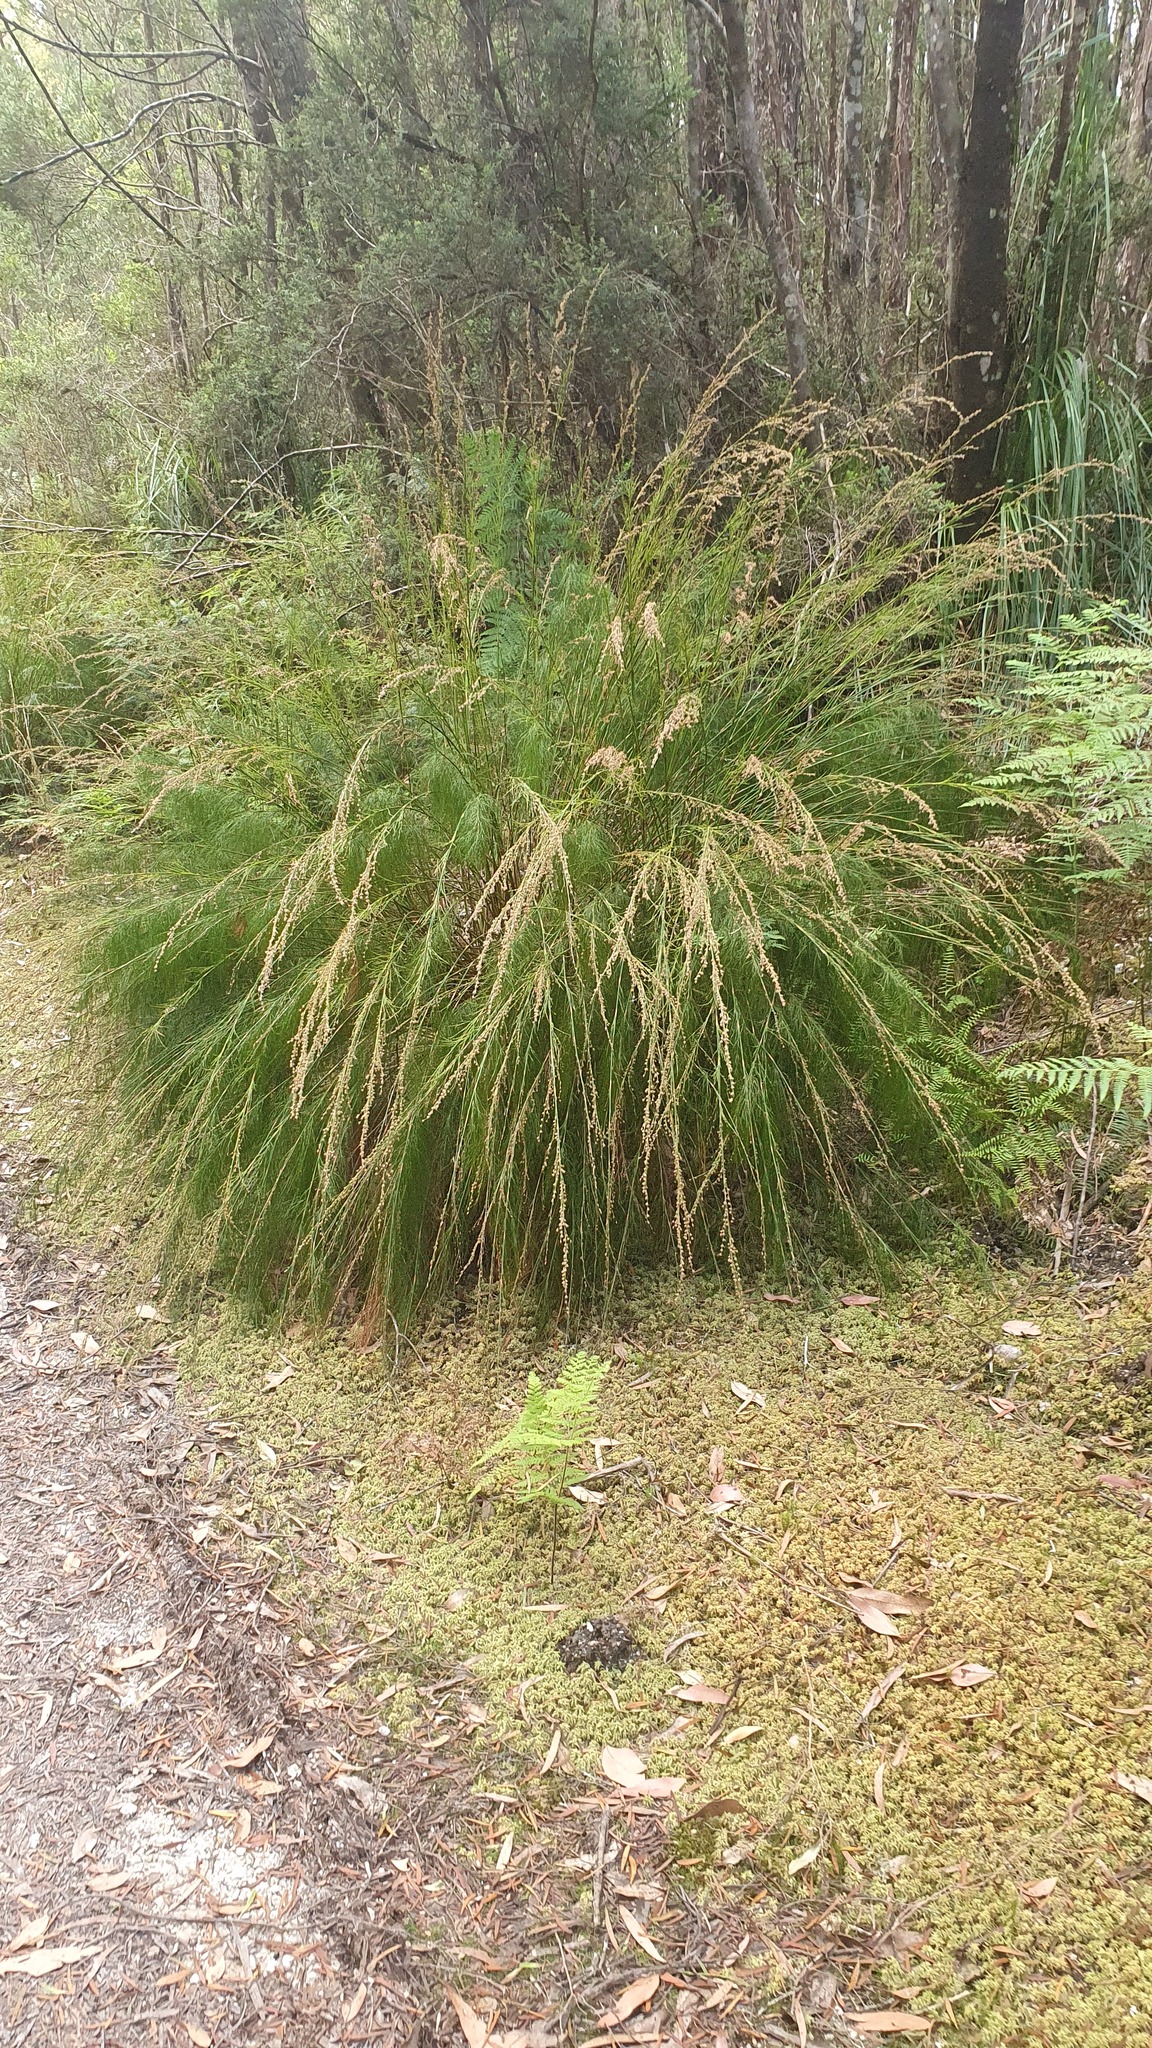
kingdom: Plantae
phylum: Tracheophyta
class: Liliopsida
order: Poales
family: Restionaceae
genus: Baloskion
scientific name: Baloskion tetraphyllum
